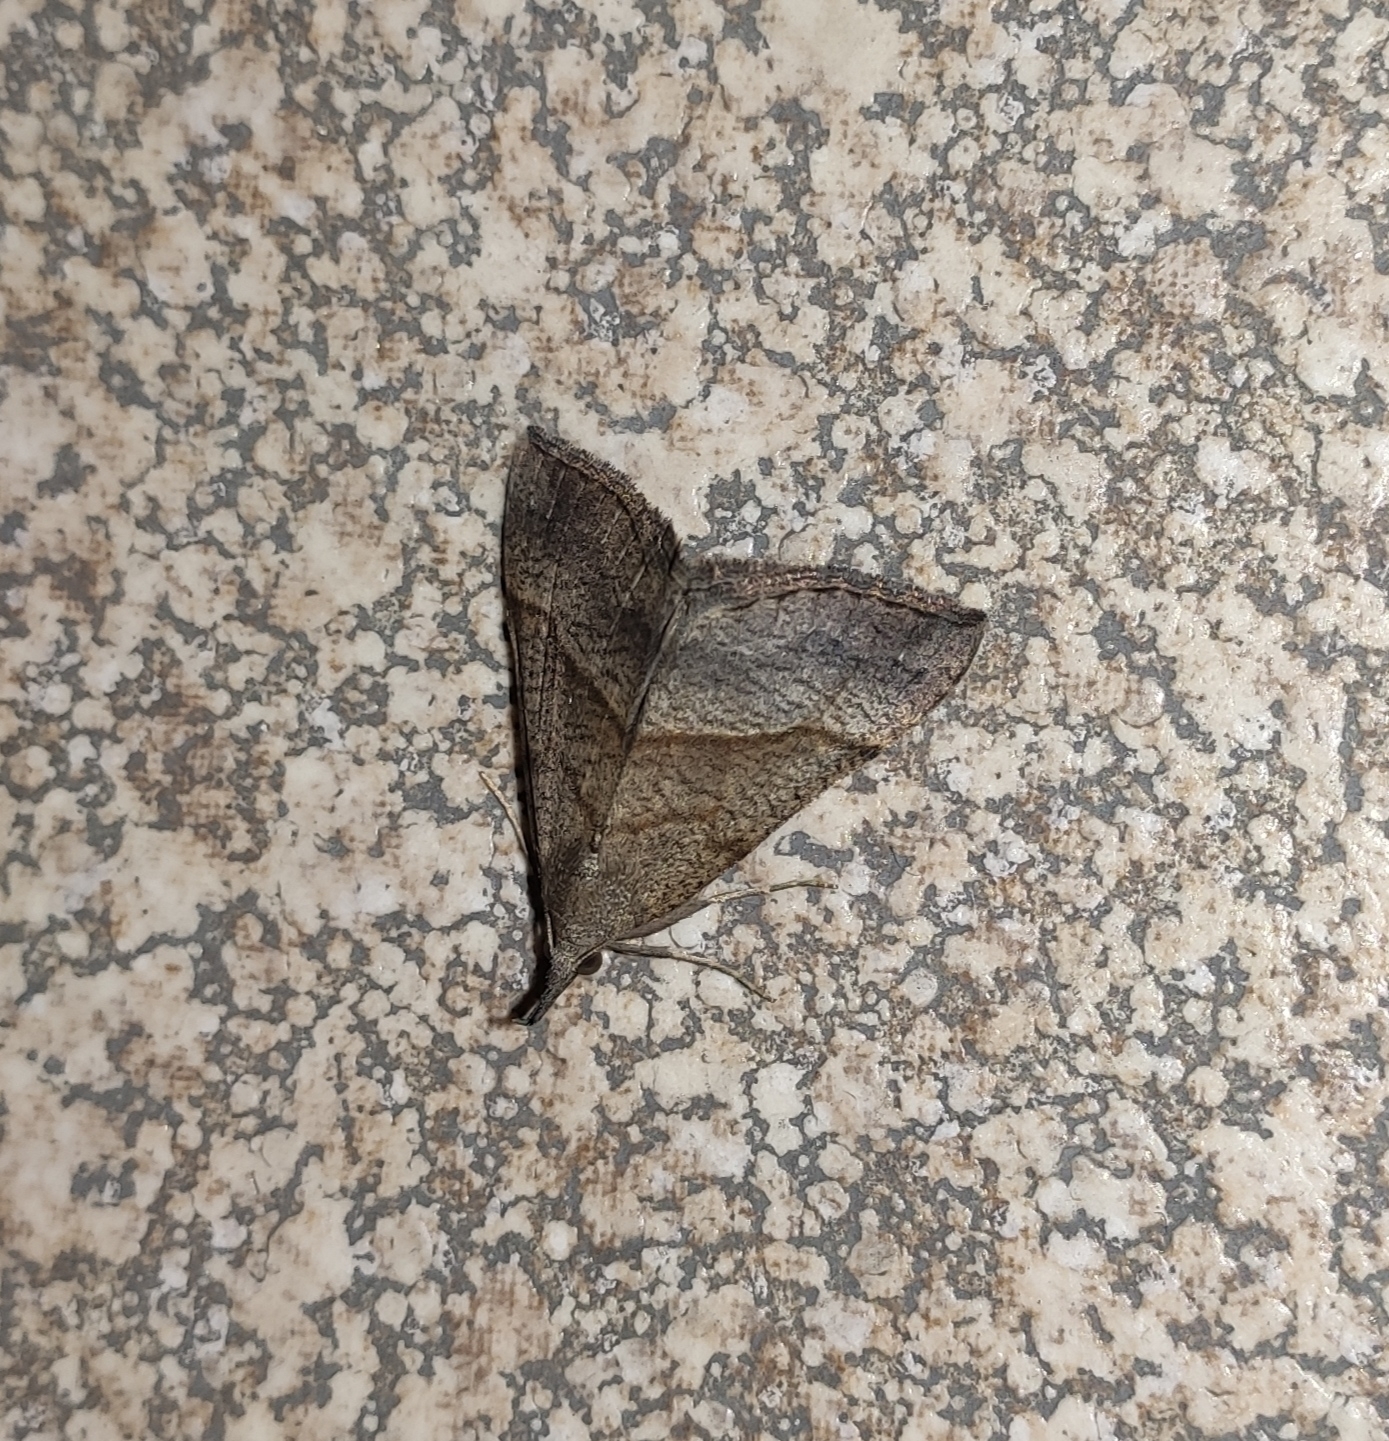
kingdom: Animalia
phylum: Arthropoda
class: Insecta
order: Lepidoptera
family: Erebidae
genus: Hypena
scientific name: Hypena proboscidalis
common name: Snout
